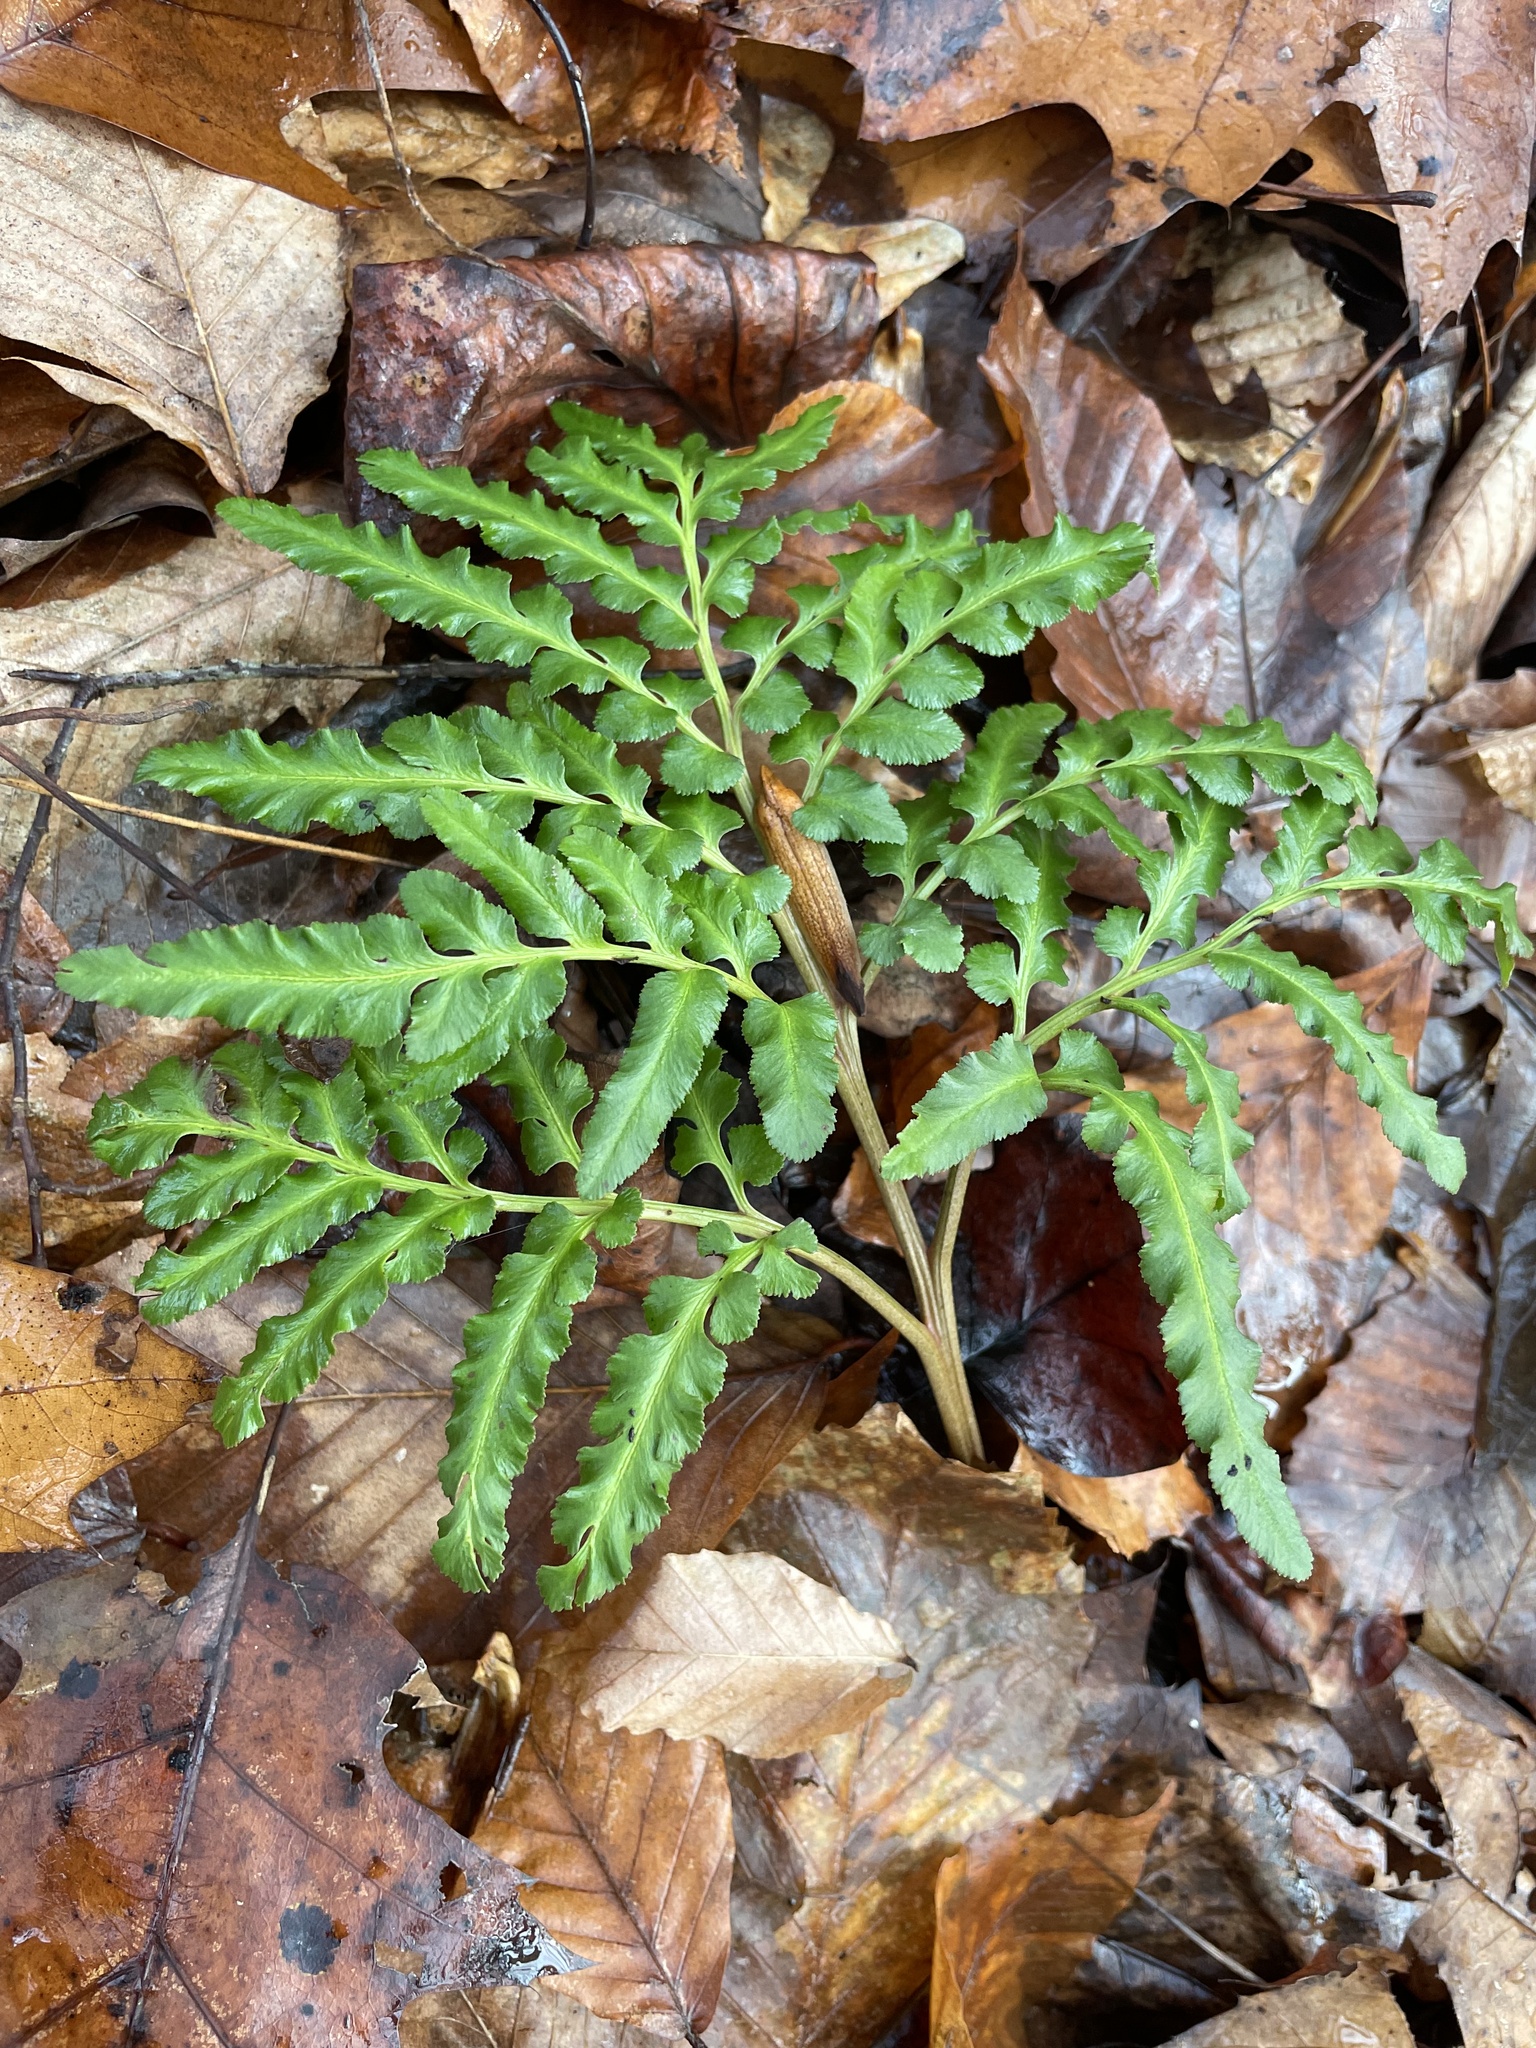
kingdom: Plantae
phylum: Tracheophyta
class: Polypodiopsida
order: Ophioglossales
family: Ophioglossaceae
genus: Sceptridium
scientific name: Sceptridium dissectum
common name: Cut-leaved grapefern
